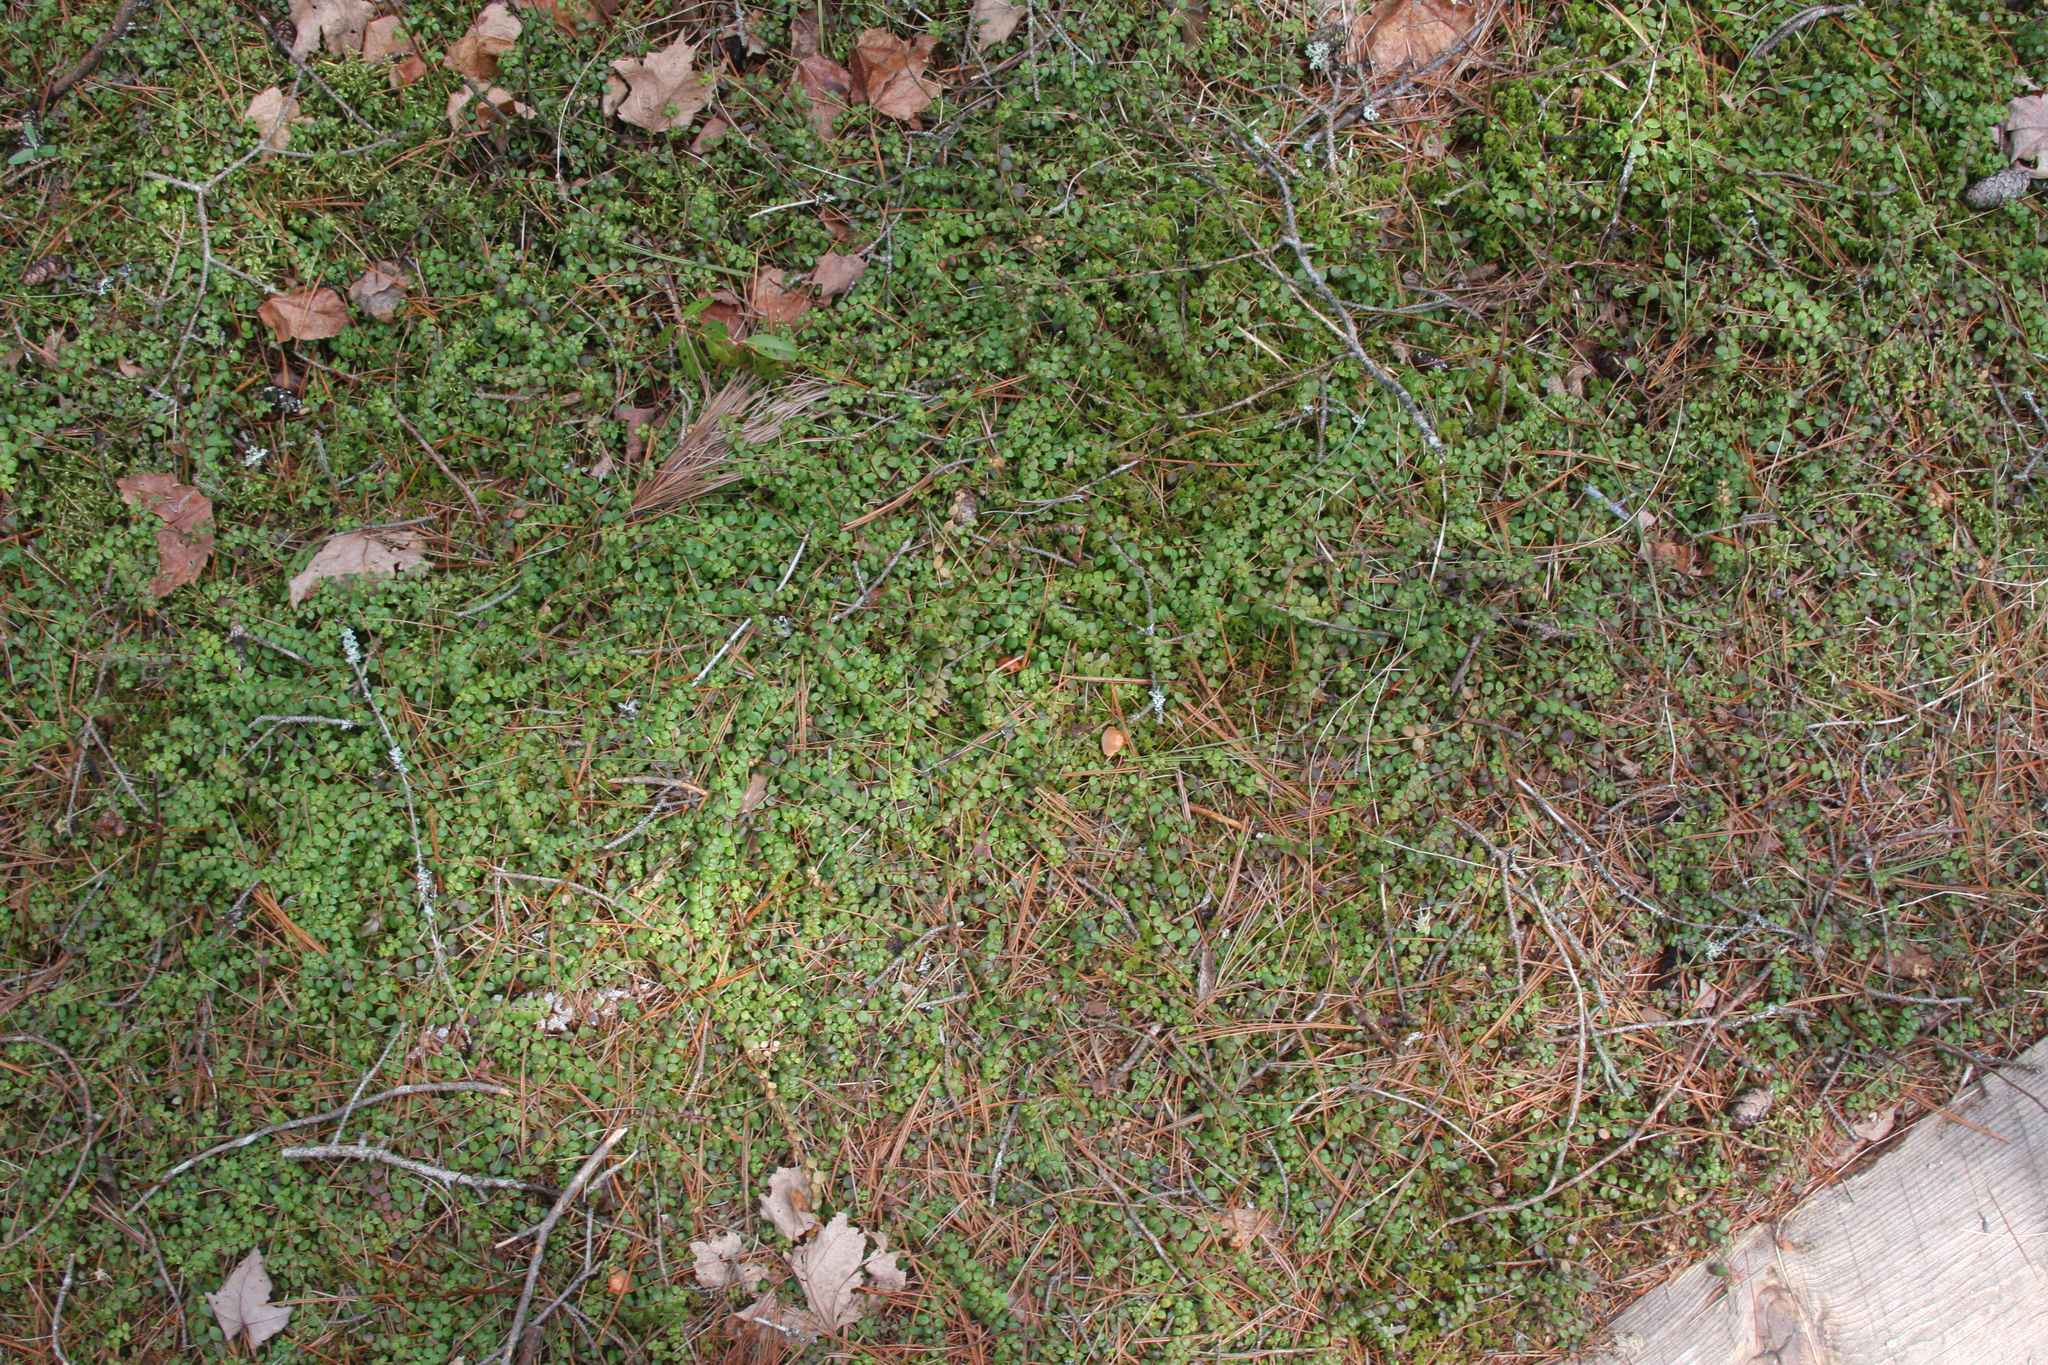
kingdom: Plantae
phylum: Tracheophyta
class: Magnoliopsida
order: Ericales
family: Ericaceae
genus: Gaultheria
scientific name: Gaultheria hispidula
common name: Cancer wintergreen
